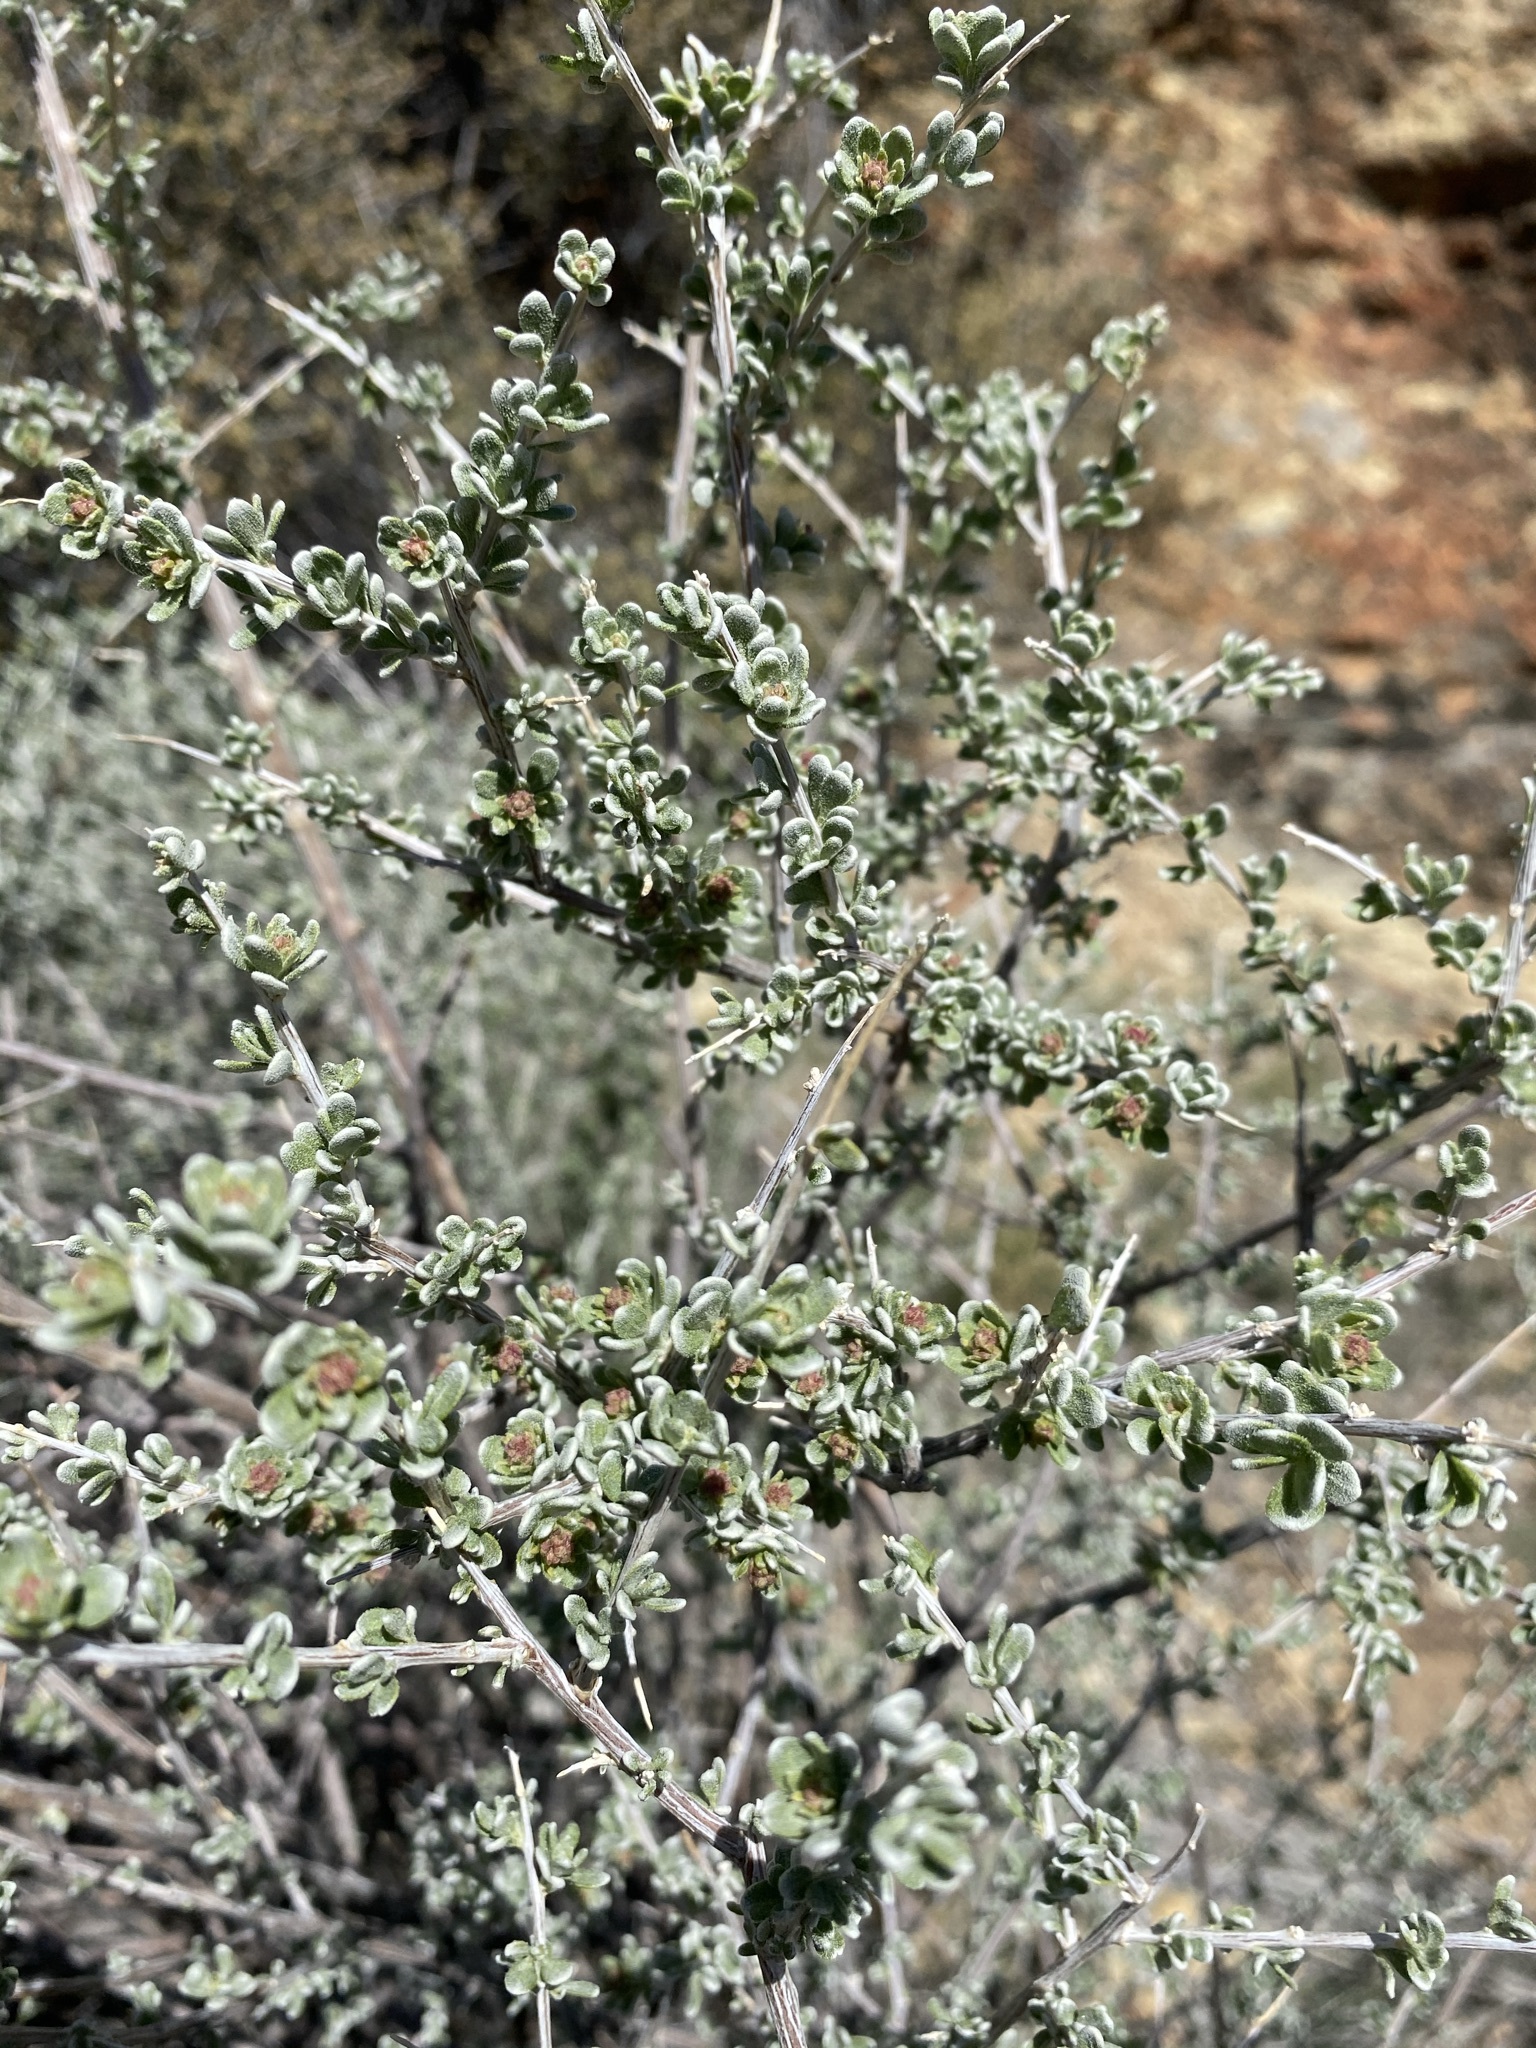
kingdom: Plantae
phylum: Tracheophyta
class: Magnoliopsida
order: Caryophyllales
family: Amaranthaceae
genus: Grayia
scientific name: Grayia spinosa
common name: Spiny hopsage
